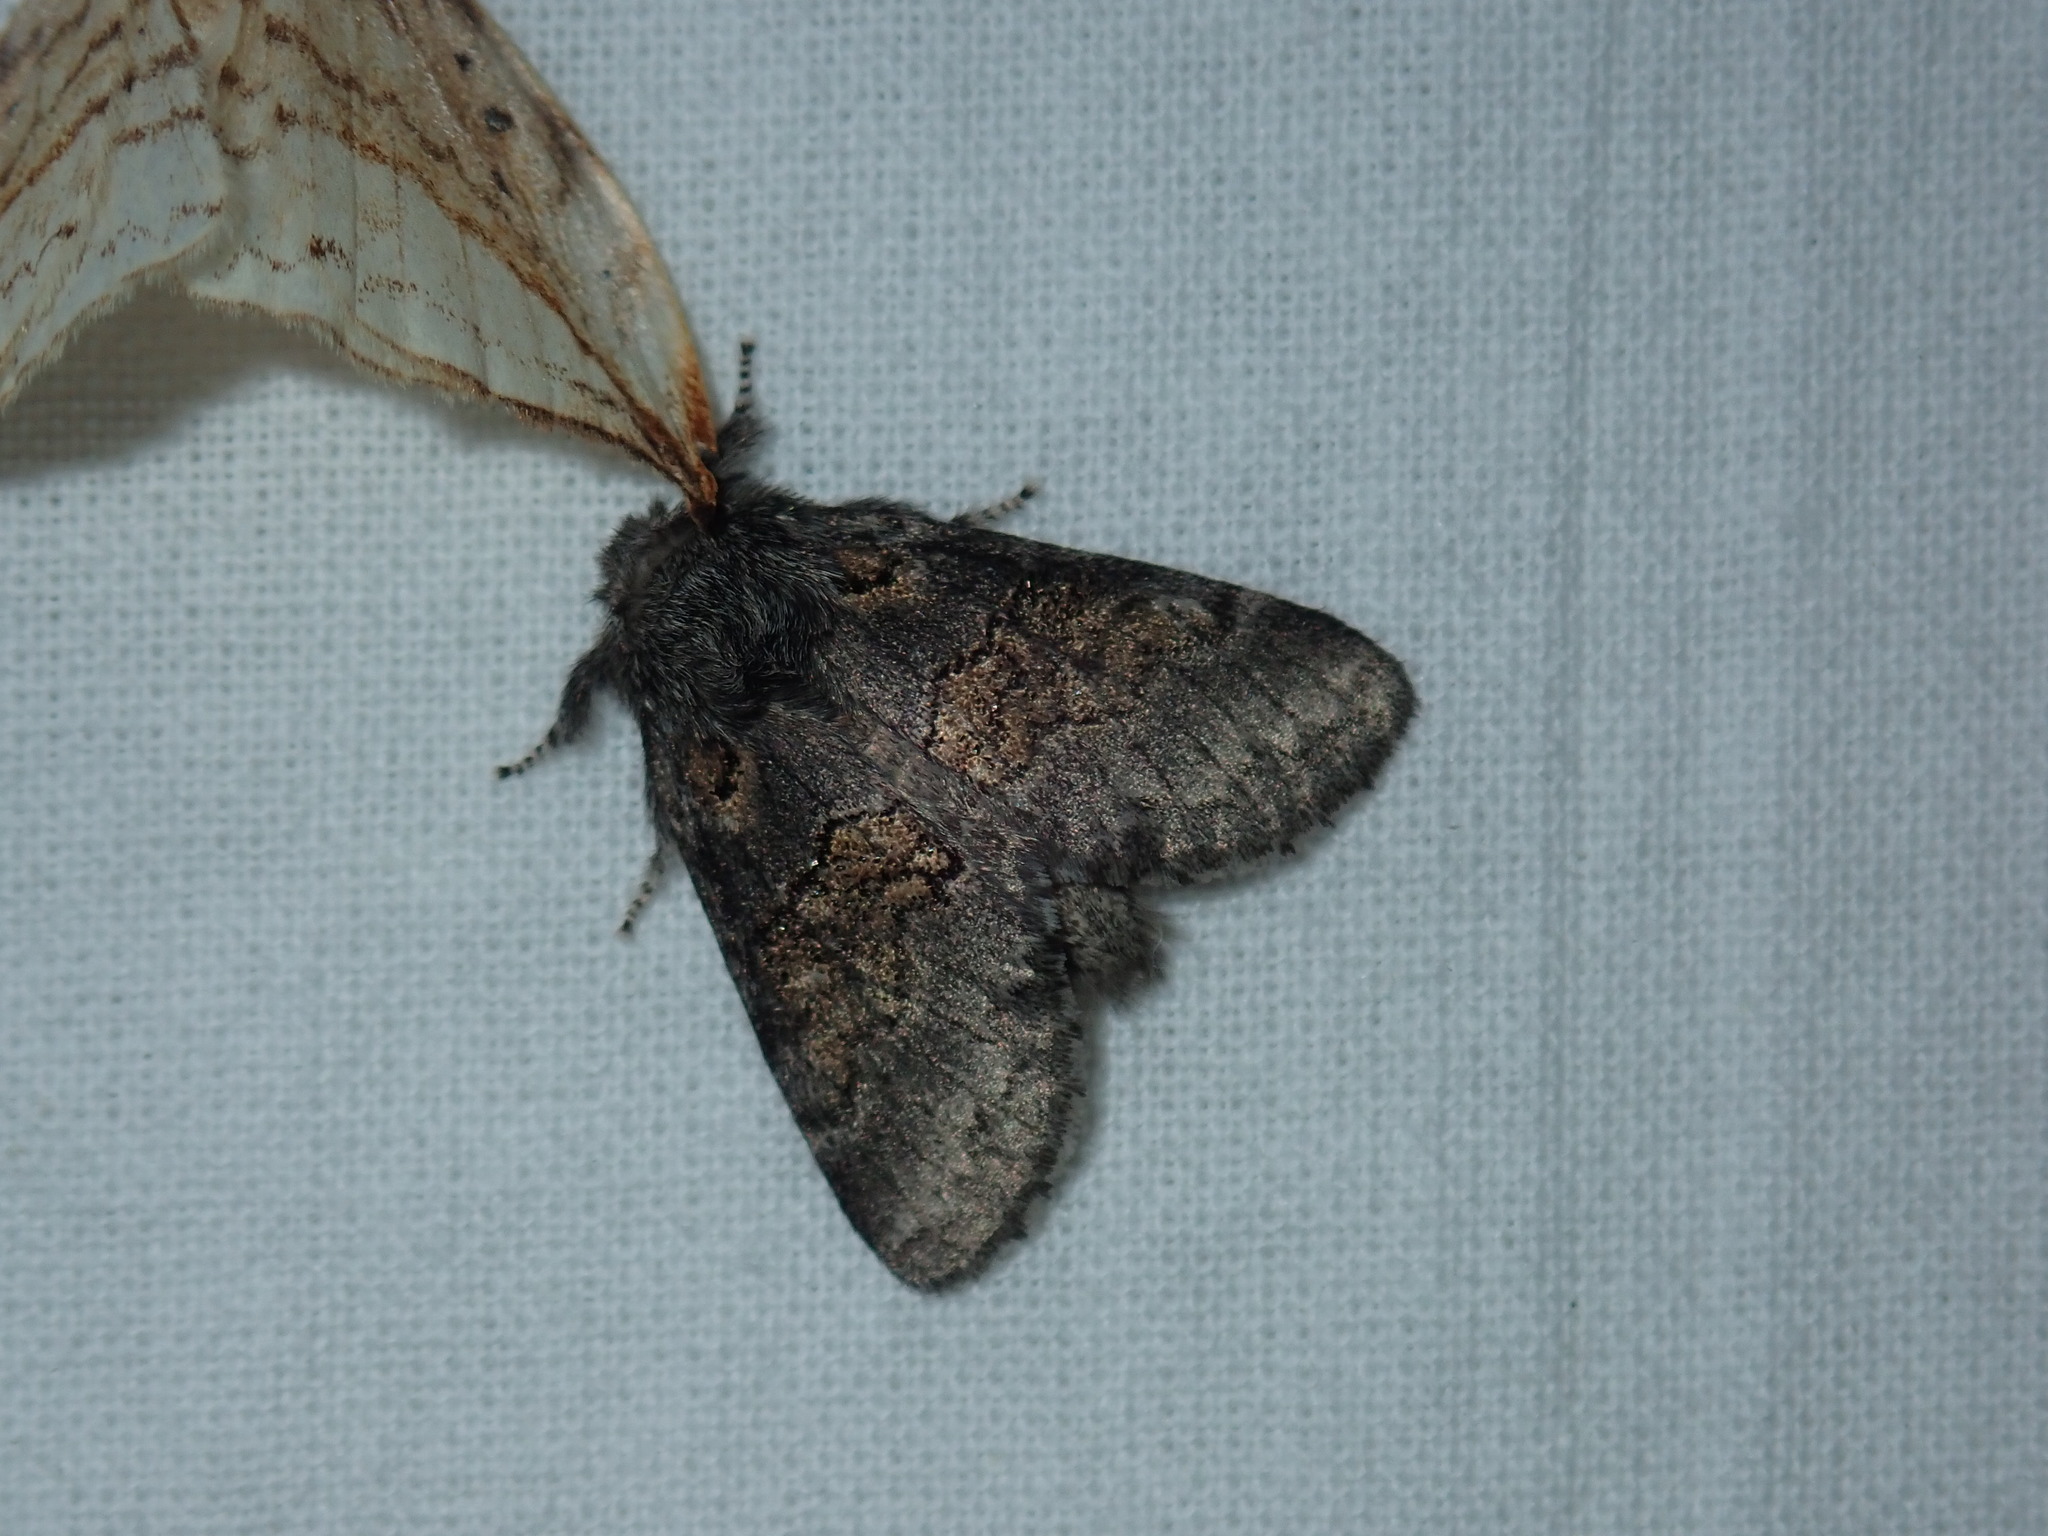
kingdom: Animalia
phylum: Arthropoda
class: Insecta
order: Lepidoptera
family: Notodontidae
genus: Gluphisia
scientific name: Gluphisia septentrionis
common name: Common gluphisia
